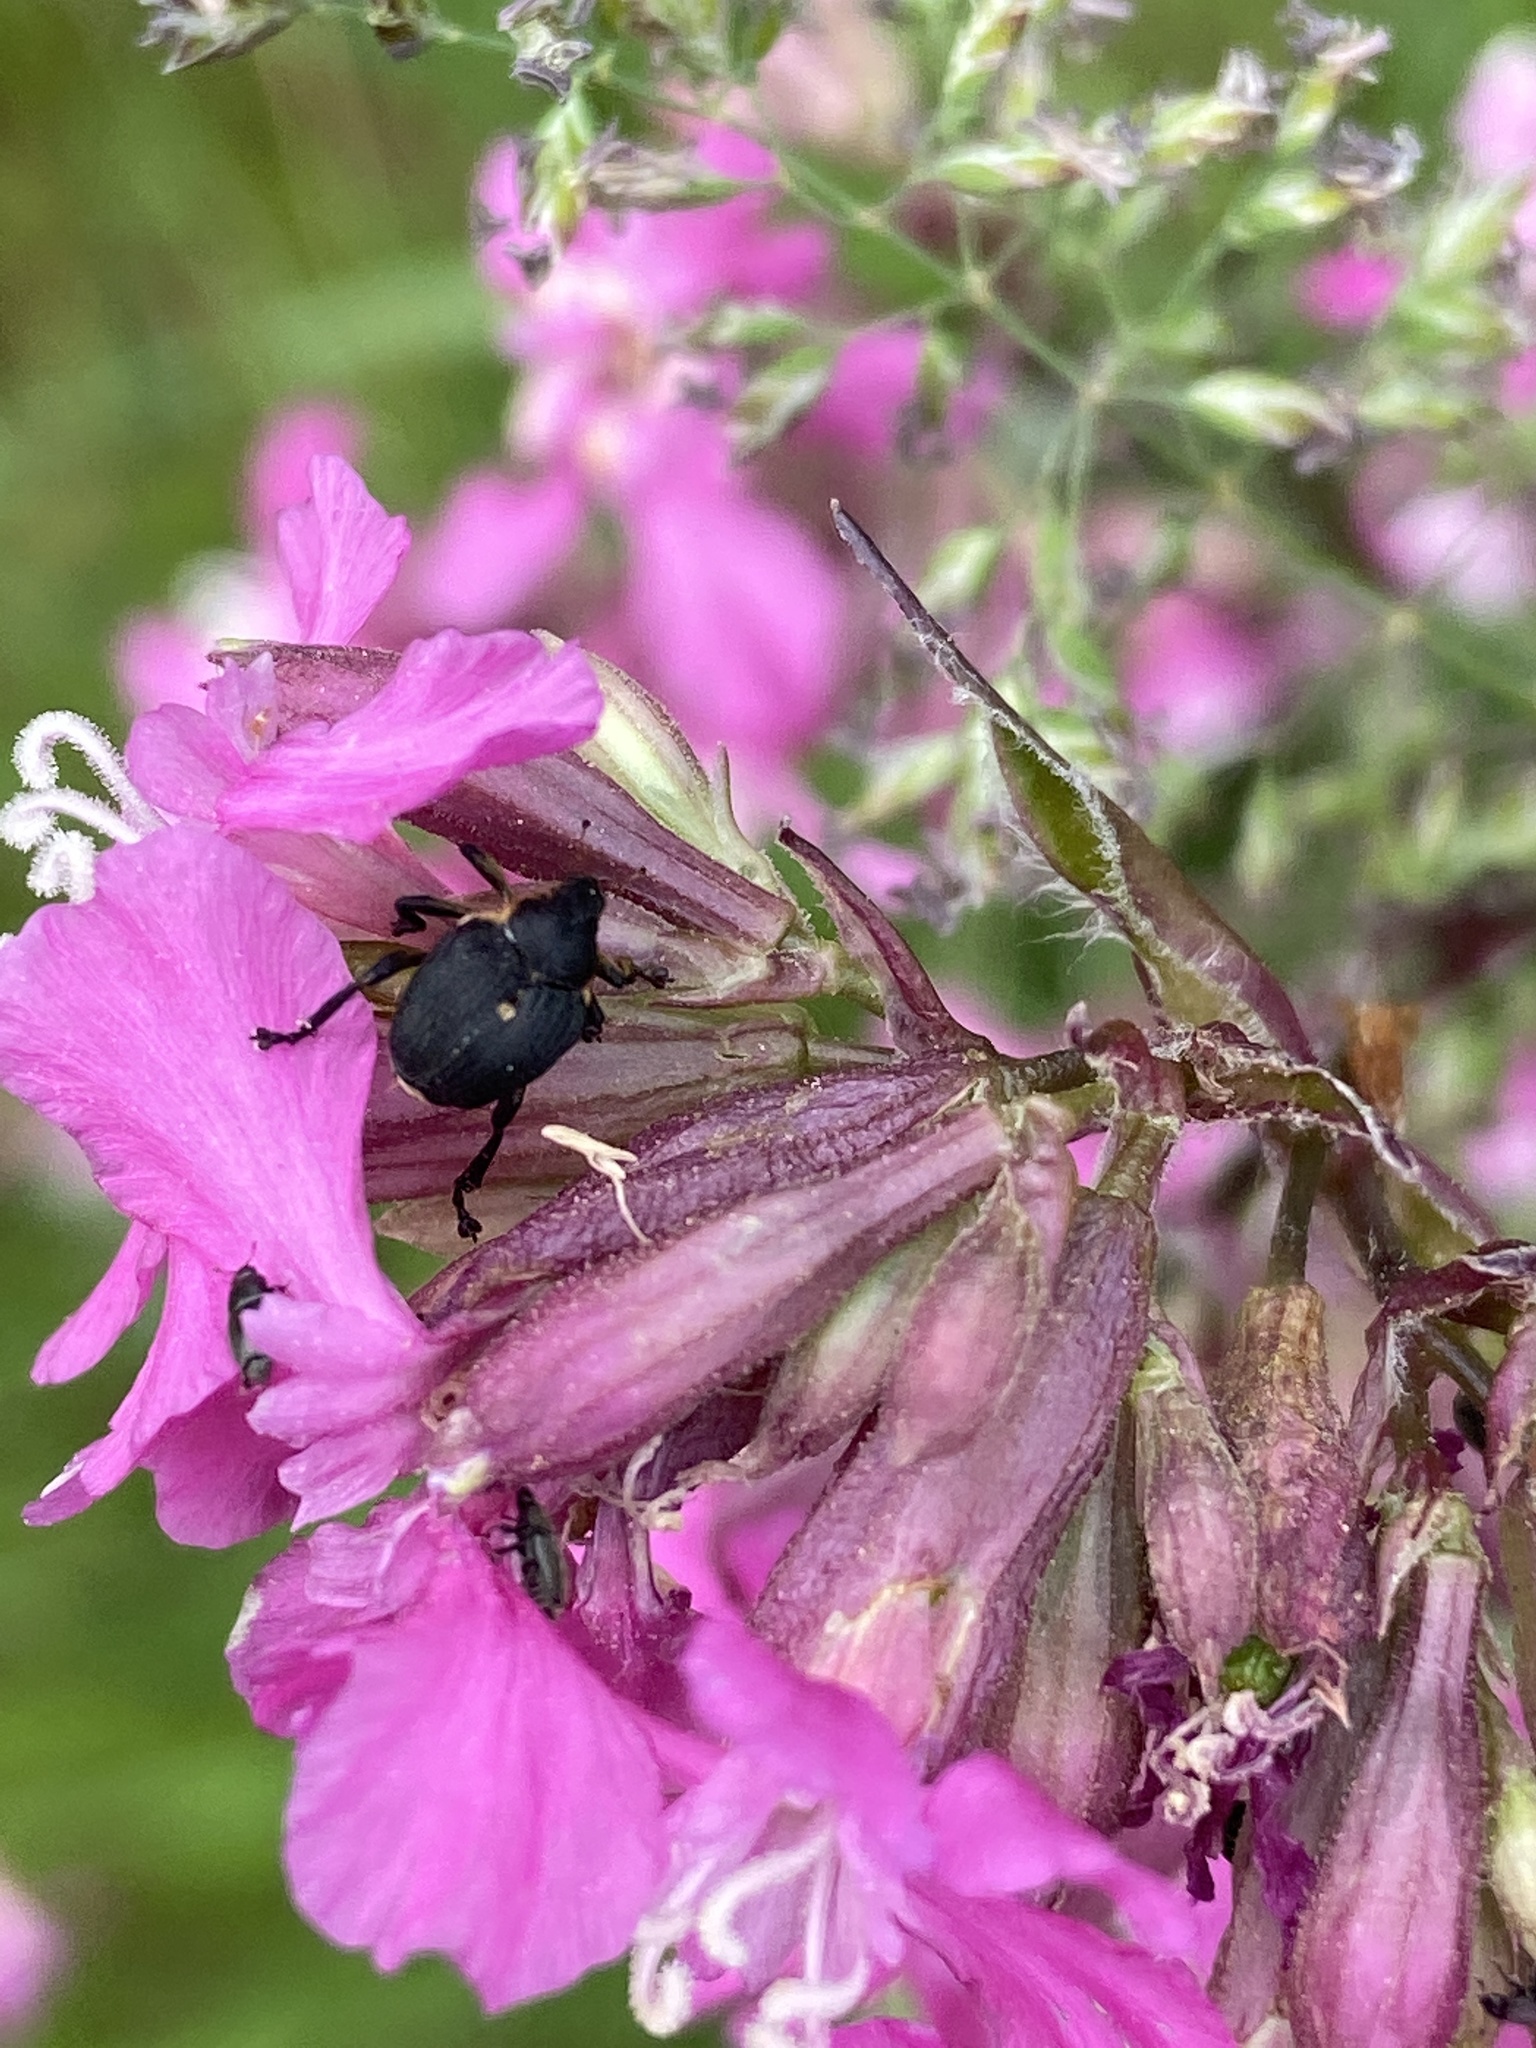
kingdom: Animalia
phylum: Arthropoda
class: Insecta
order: Coleoptera
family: Curculionidae
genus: Mononychus
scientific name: Mononychus punctumalbum
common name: Iris weevil
